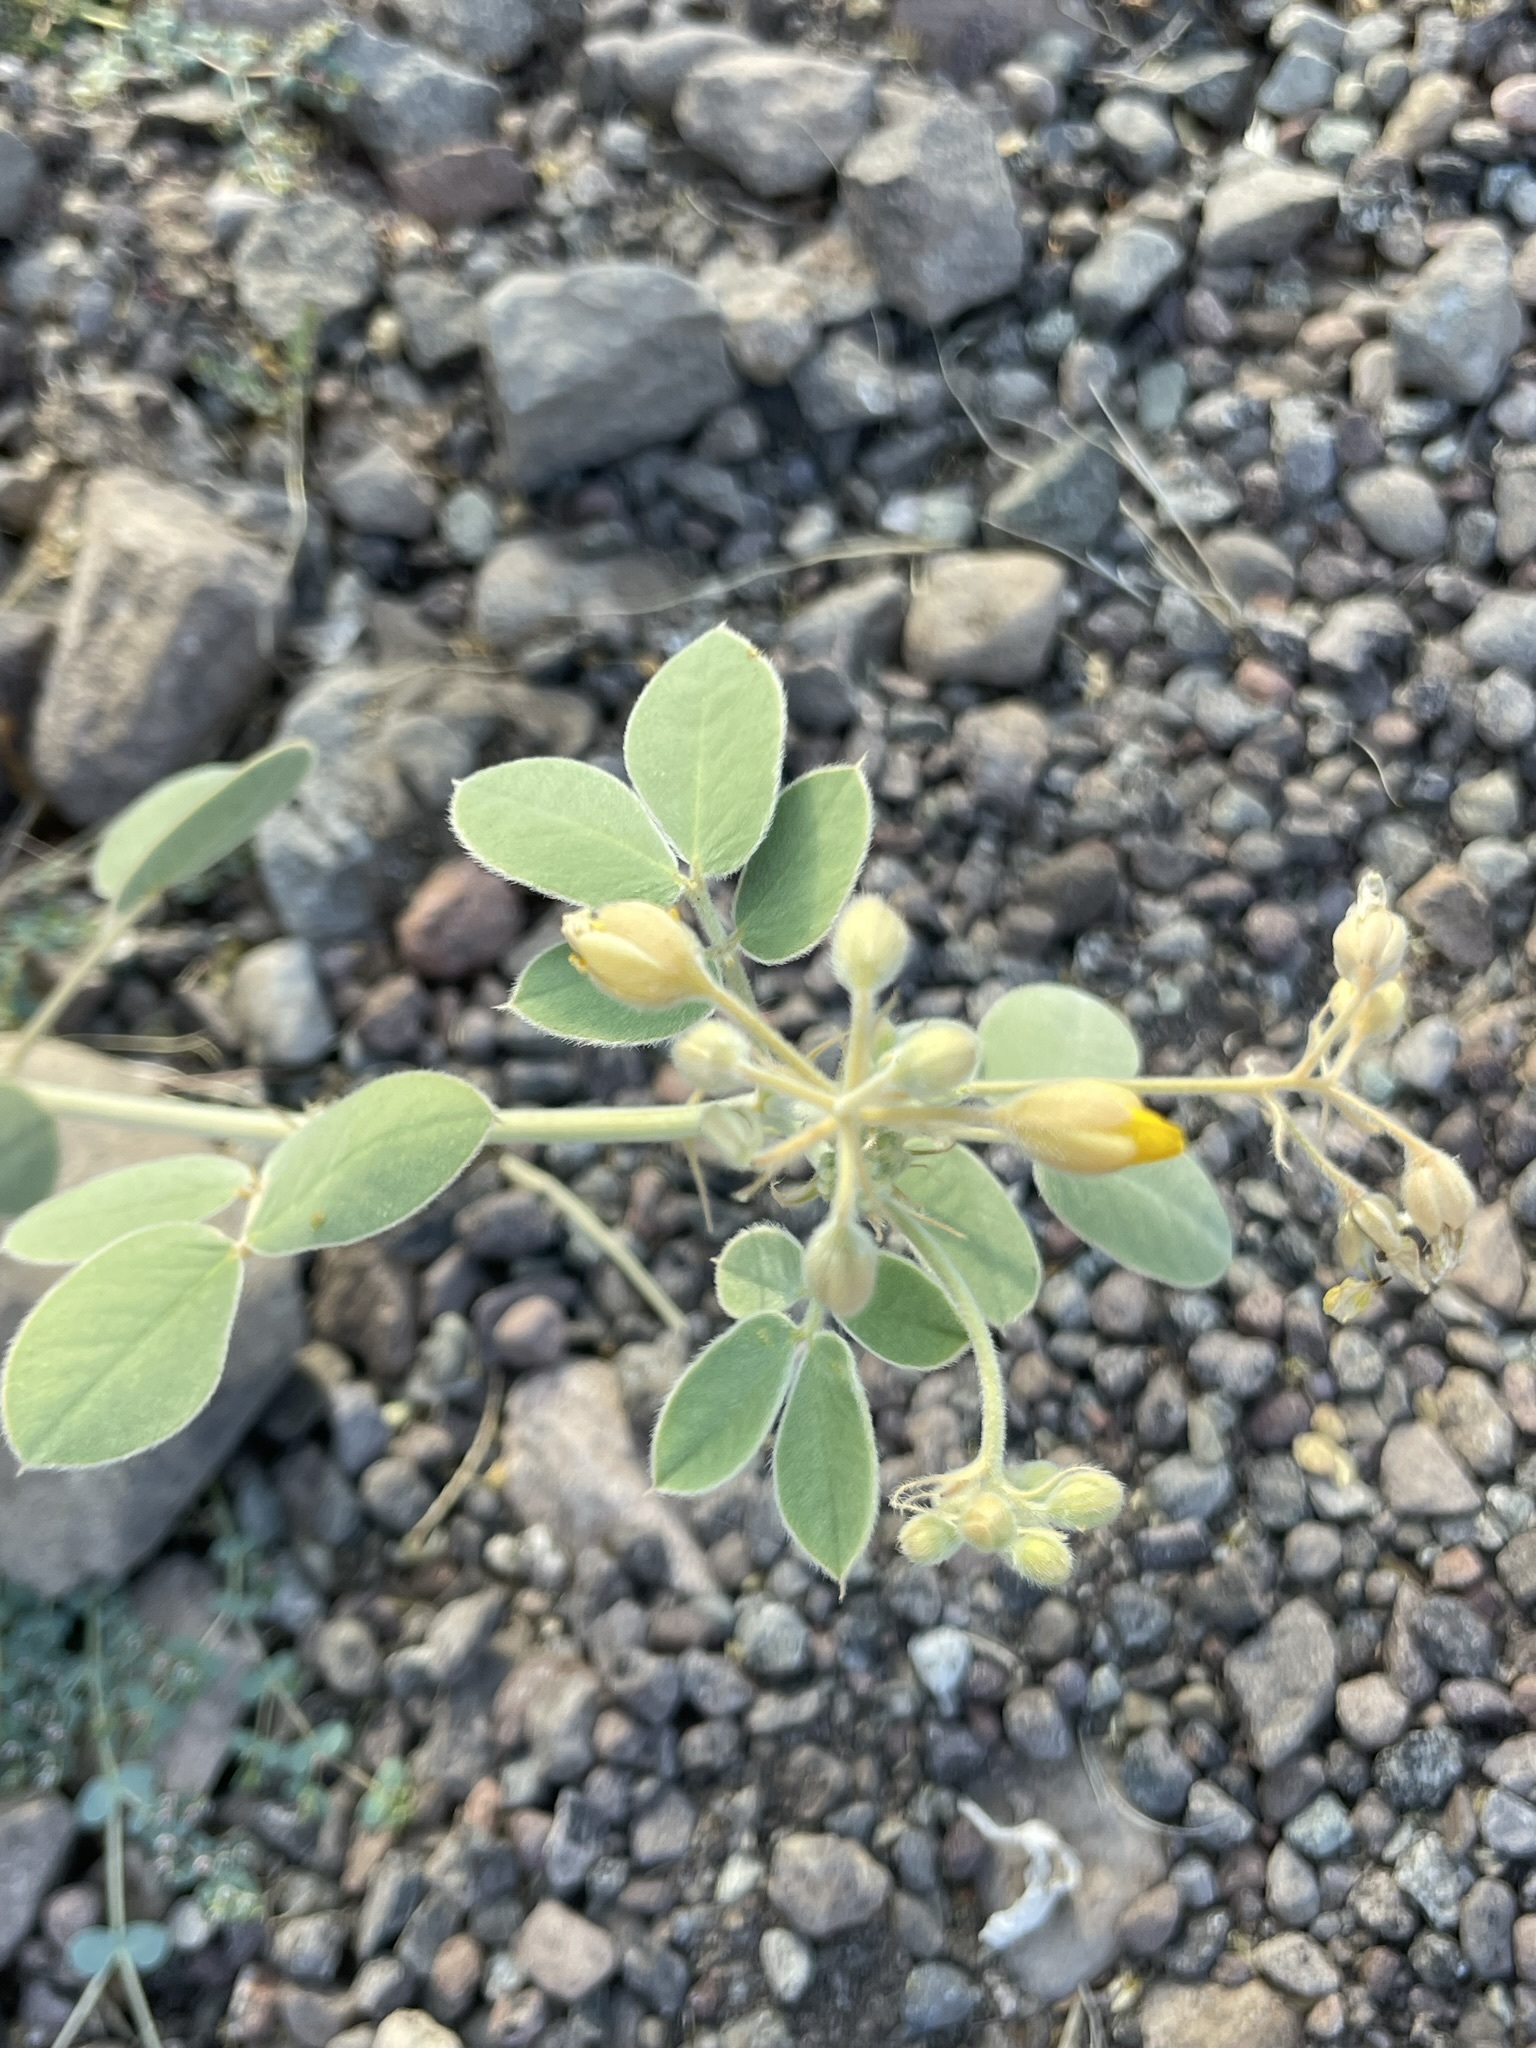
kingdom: Plantae
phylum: Tracheophyta
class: Magnoliopsida
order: Fabales
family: Fabaceae
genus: Senna
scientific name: Senna confinis
